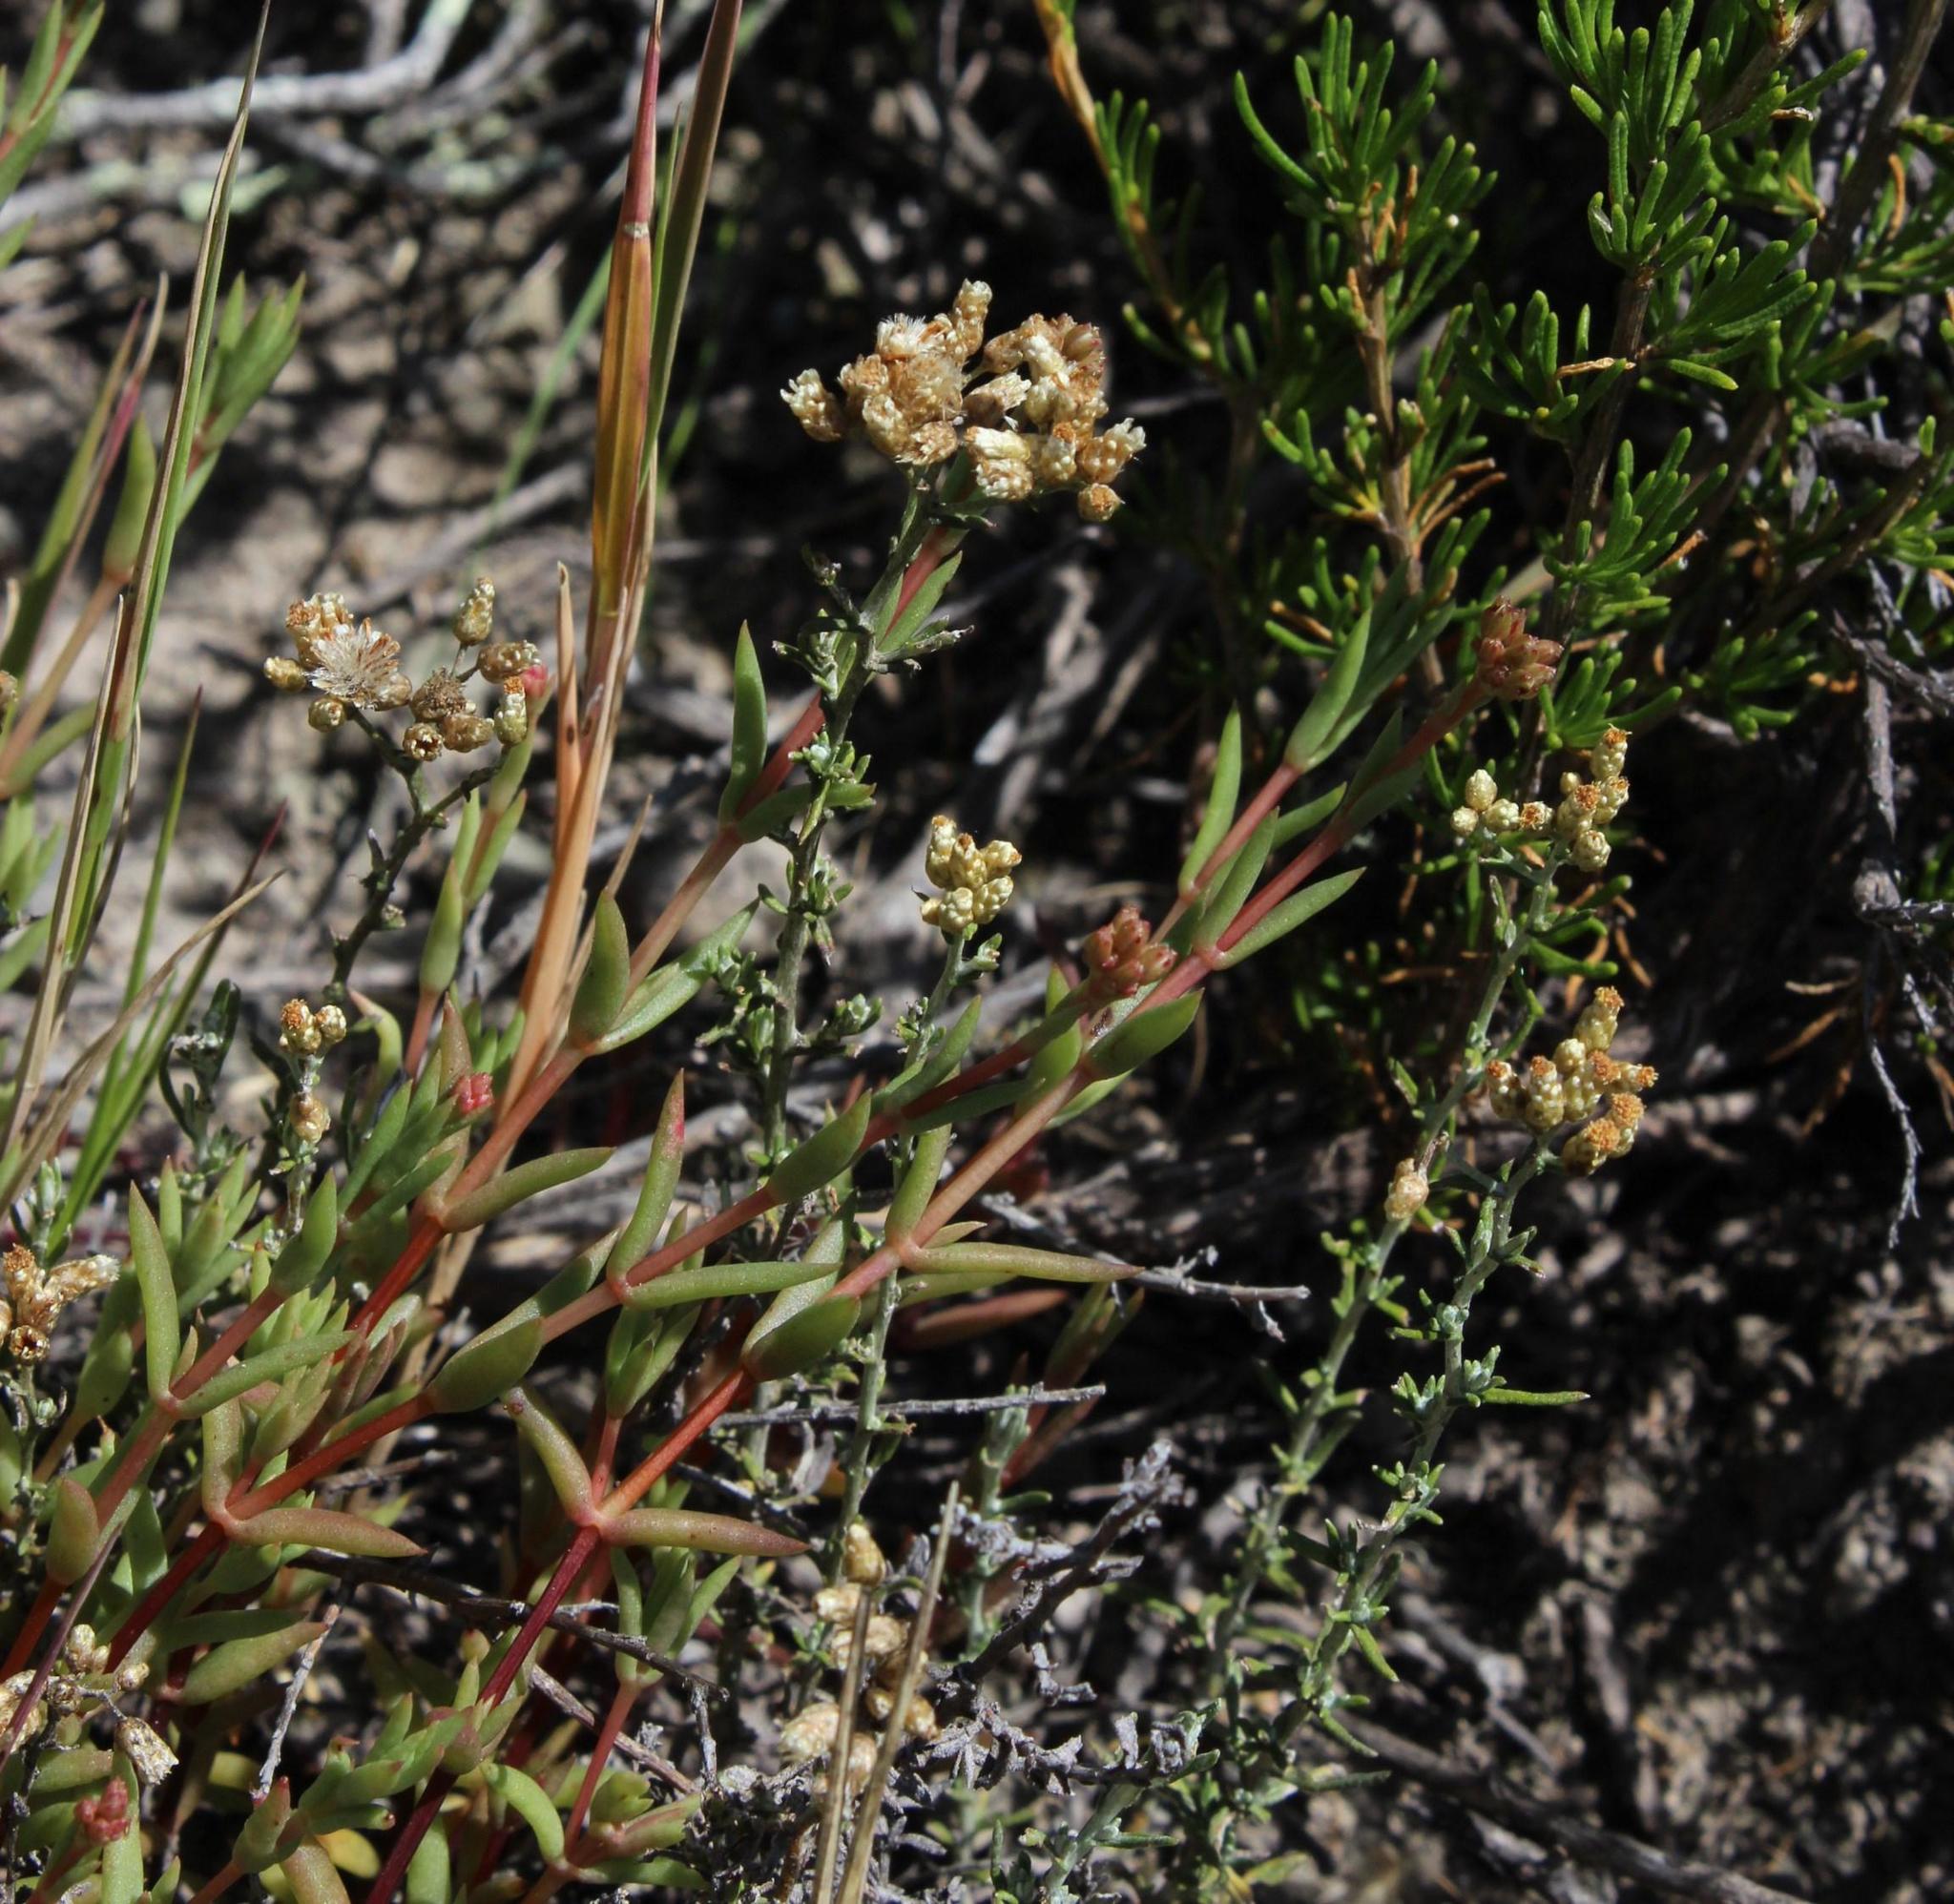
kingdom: Plantae
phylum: Tracheophyta
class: Magnoliopsida
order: Asterales
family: Asteraceae
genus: Helichrysum
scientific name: Helichrysum rosum
